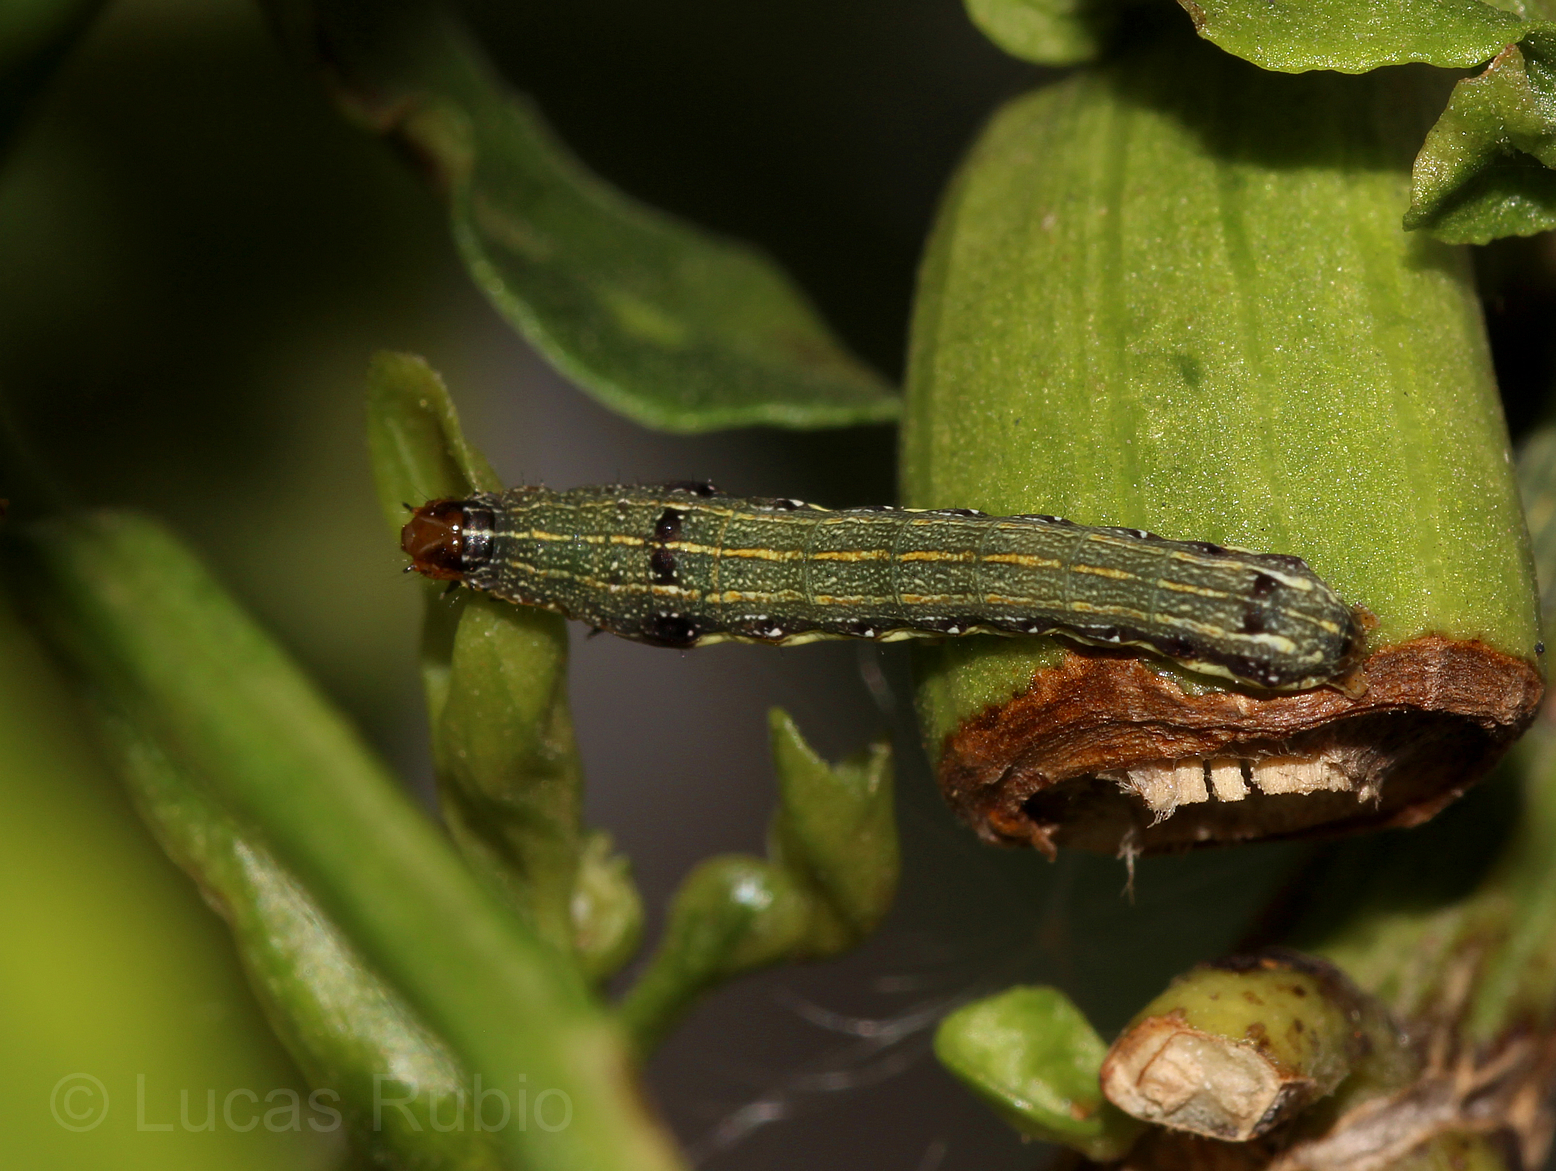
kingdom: Animalia
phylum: Arthropoda
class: Insecta
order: Lepidoptera
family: Noctuidae
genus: Spodoptera
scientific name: Spodoptera eridania
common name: Southern army worm
